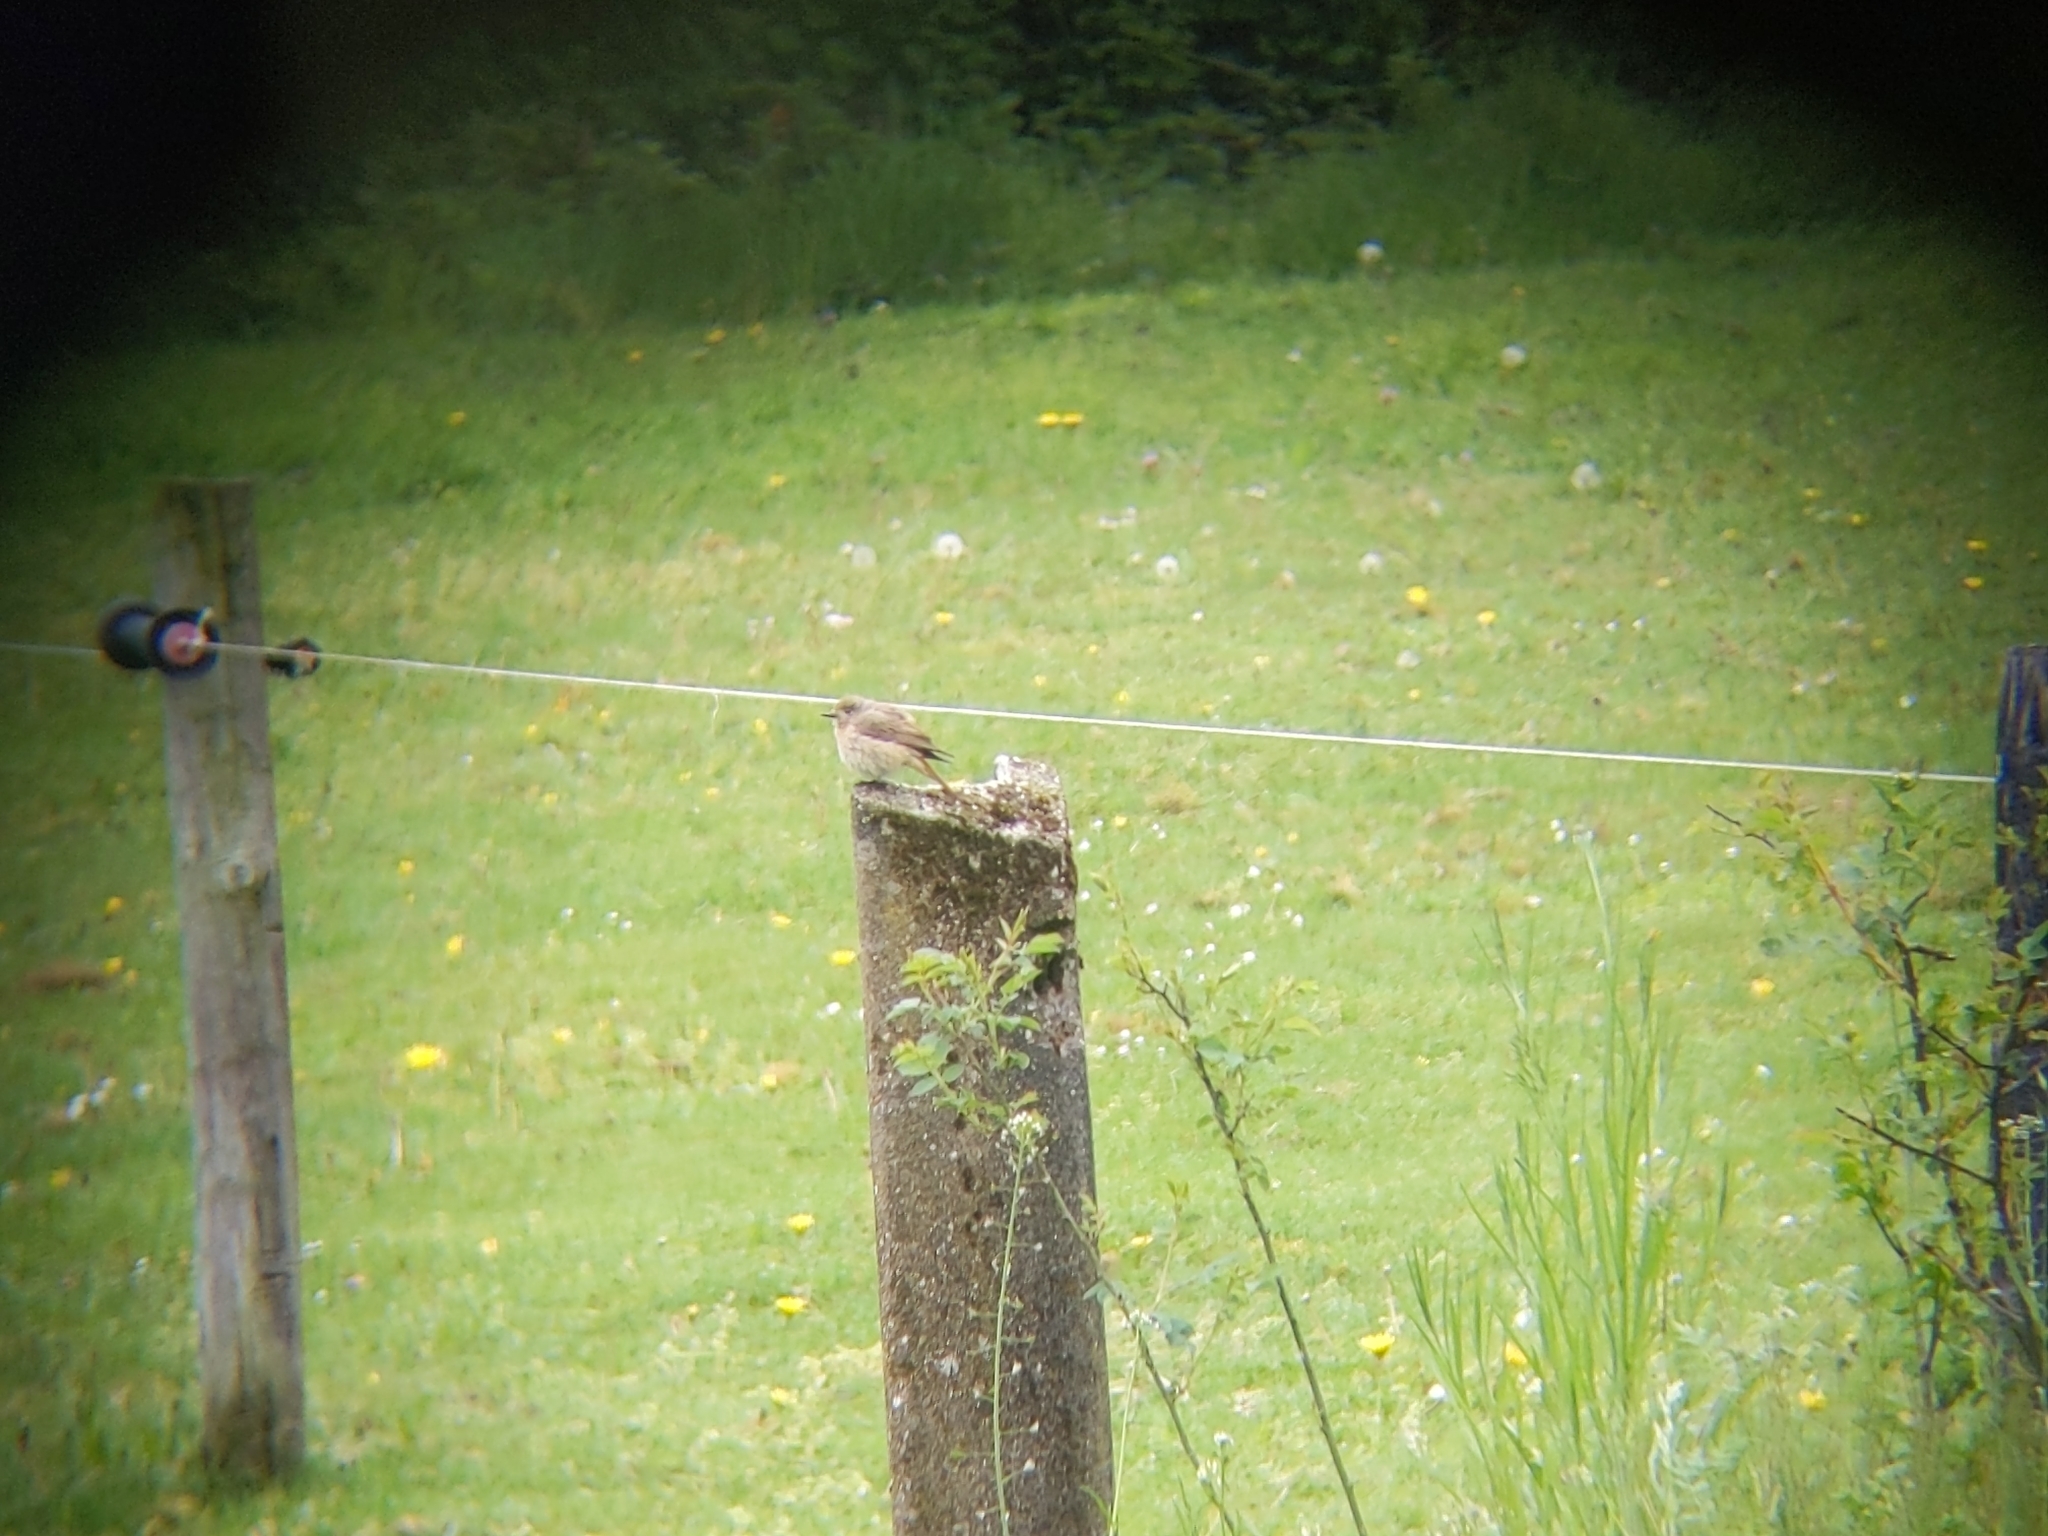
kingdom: Animalia
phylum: Chordata
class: Aves
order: Passeriformes
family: Muscicapidae
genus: Phoenicurus
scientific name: Phoenicurus ochruros
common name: Black redstart
